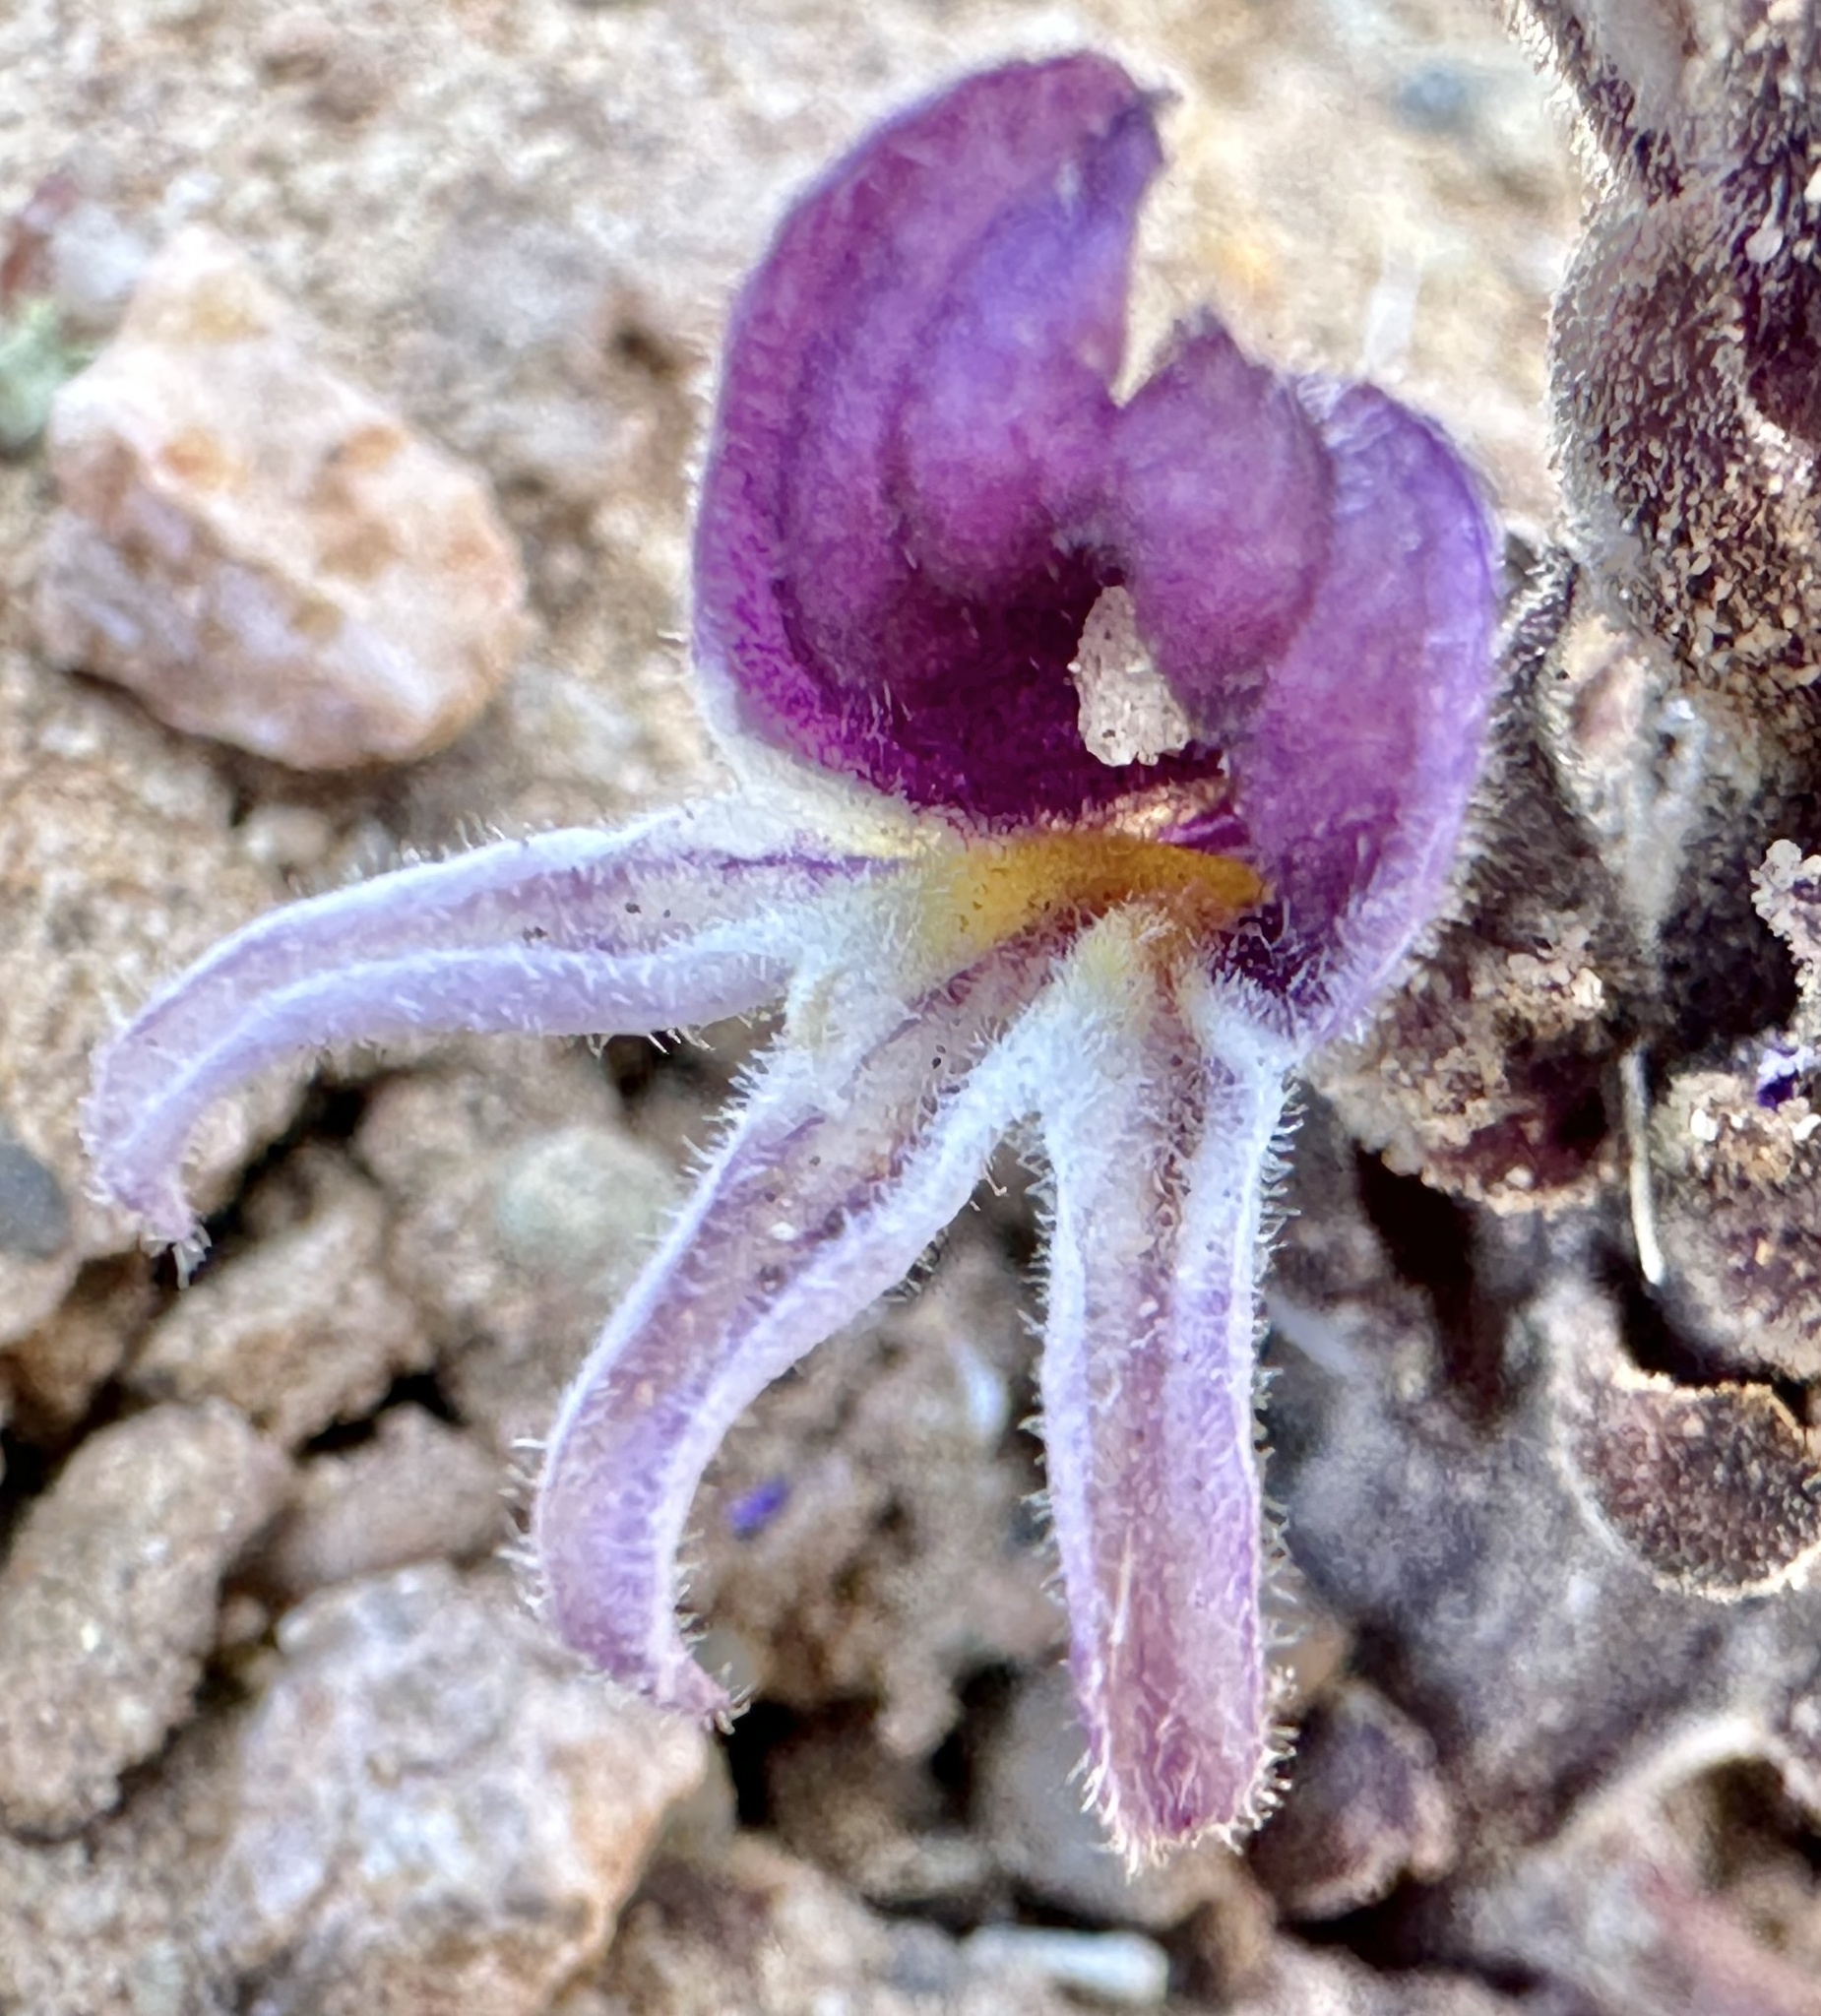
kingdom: Plantae
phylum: Tracheophyta
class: Magnoliopsida
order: Lamiales
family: Orobanchaceae
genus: Aphyllon
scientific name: Aphyllon cooperi
